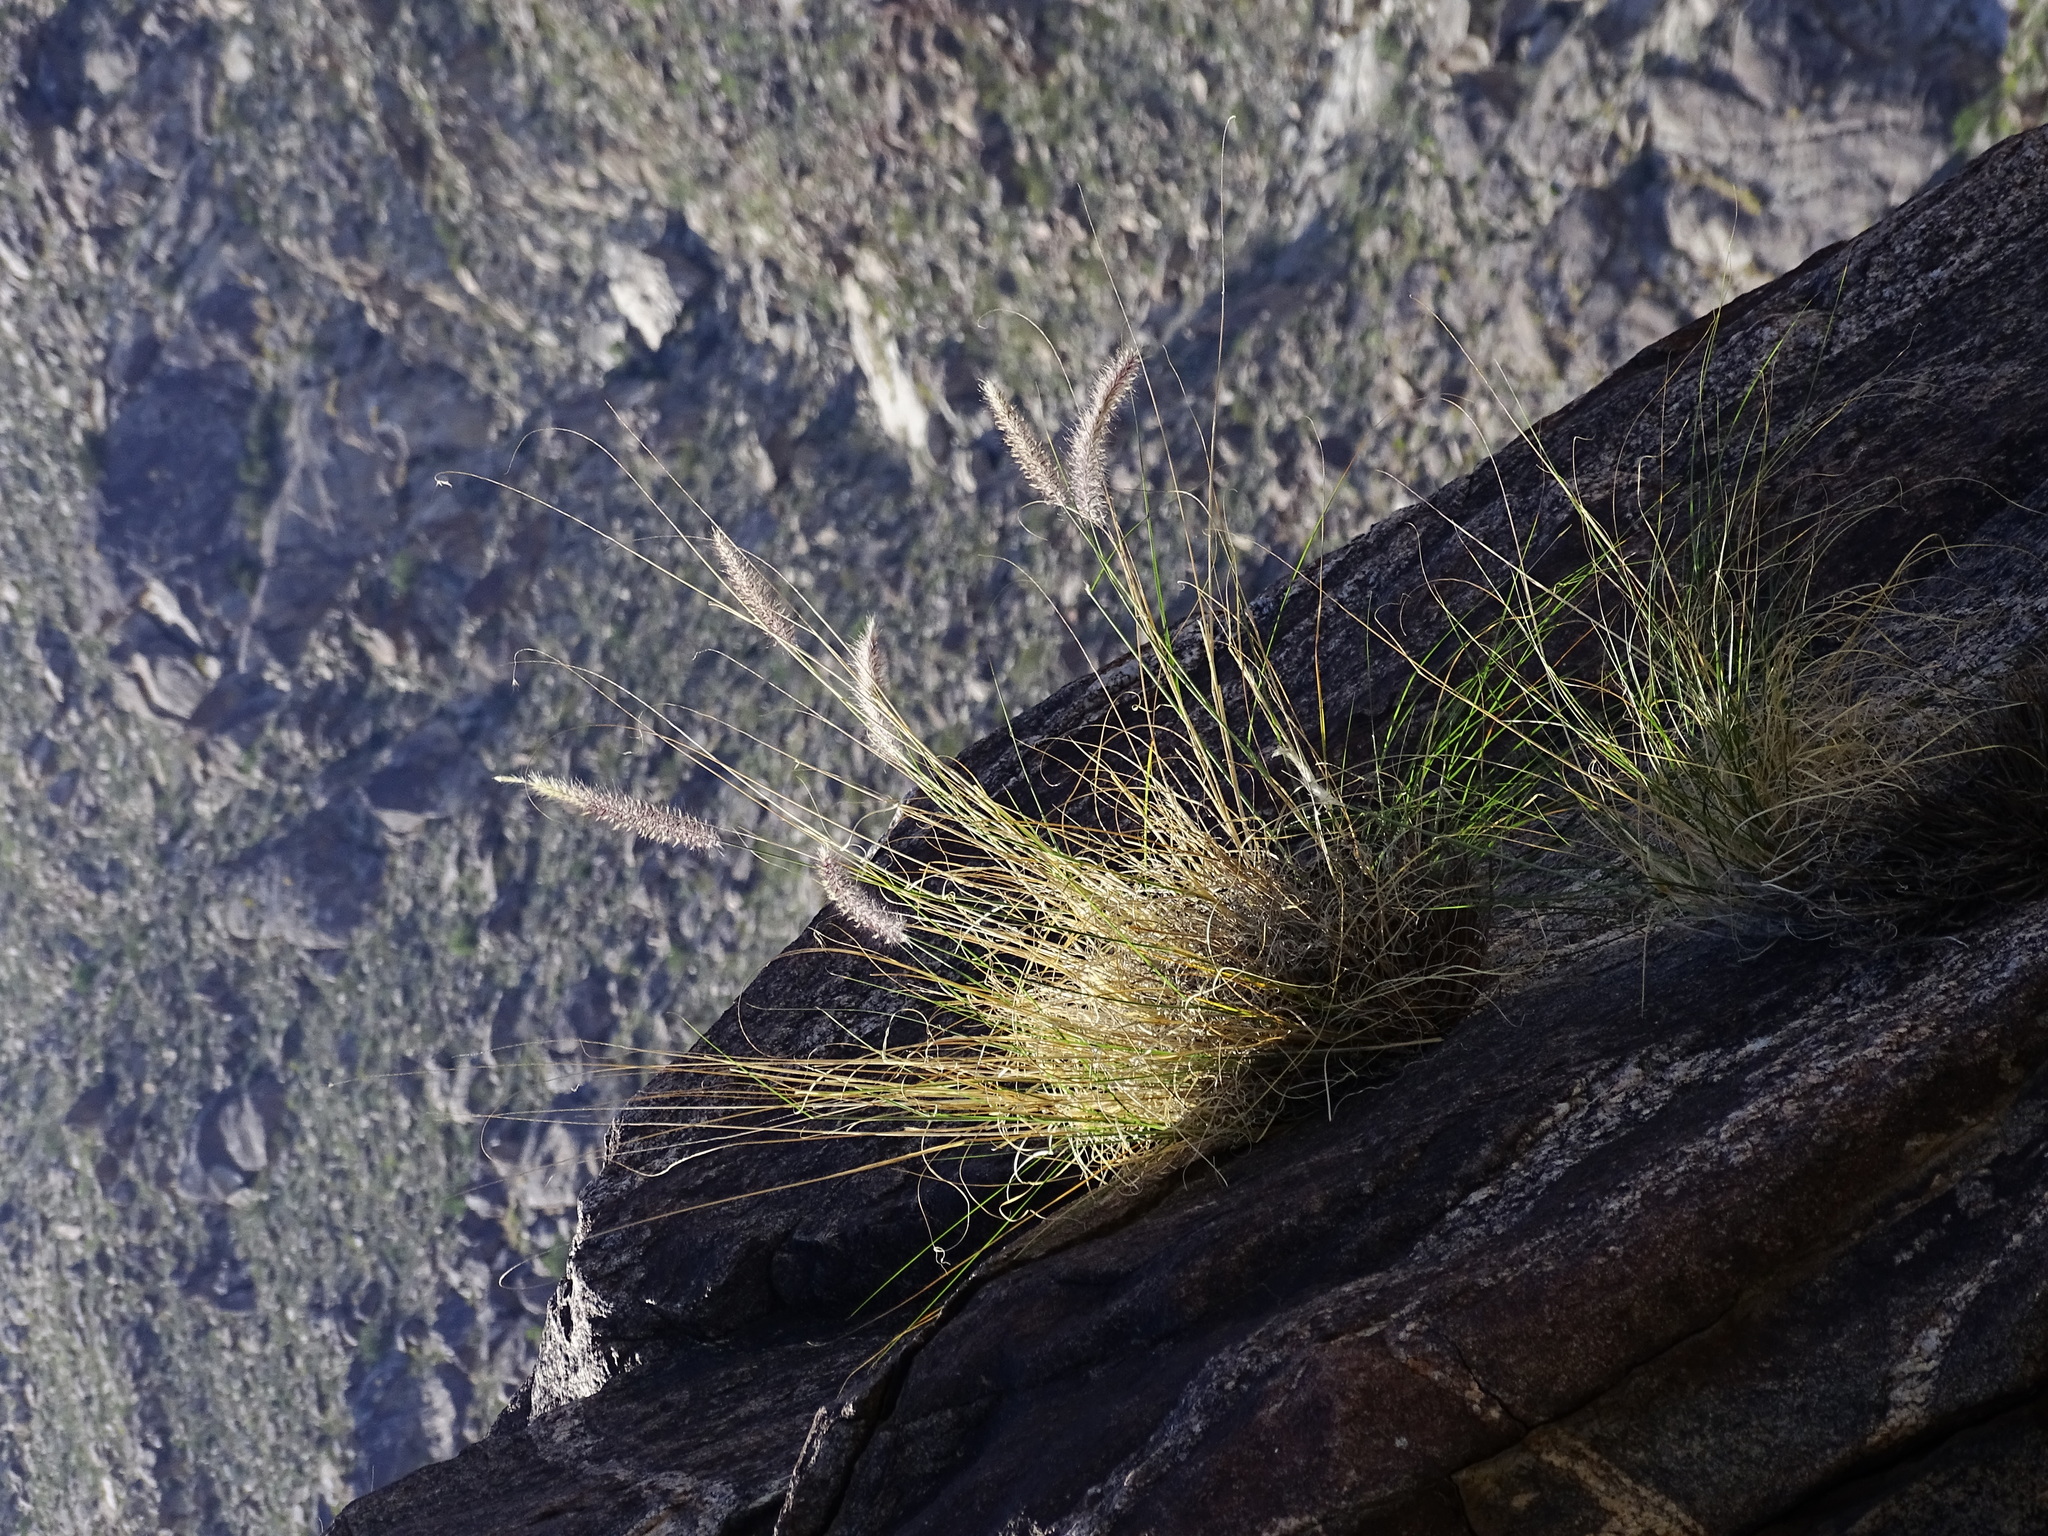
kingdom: Plantae
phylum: Tracheophyta
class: Liliopsida
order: Poales
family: Poaceae
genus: Cenchrus
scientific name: Cenchrus setaceus
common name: Crimson fountaingrass
